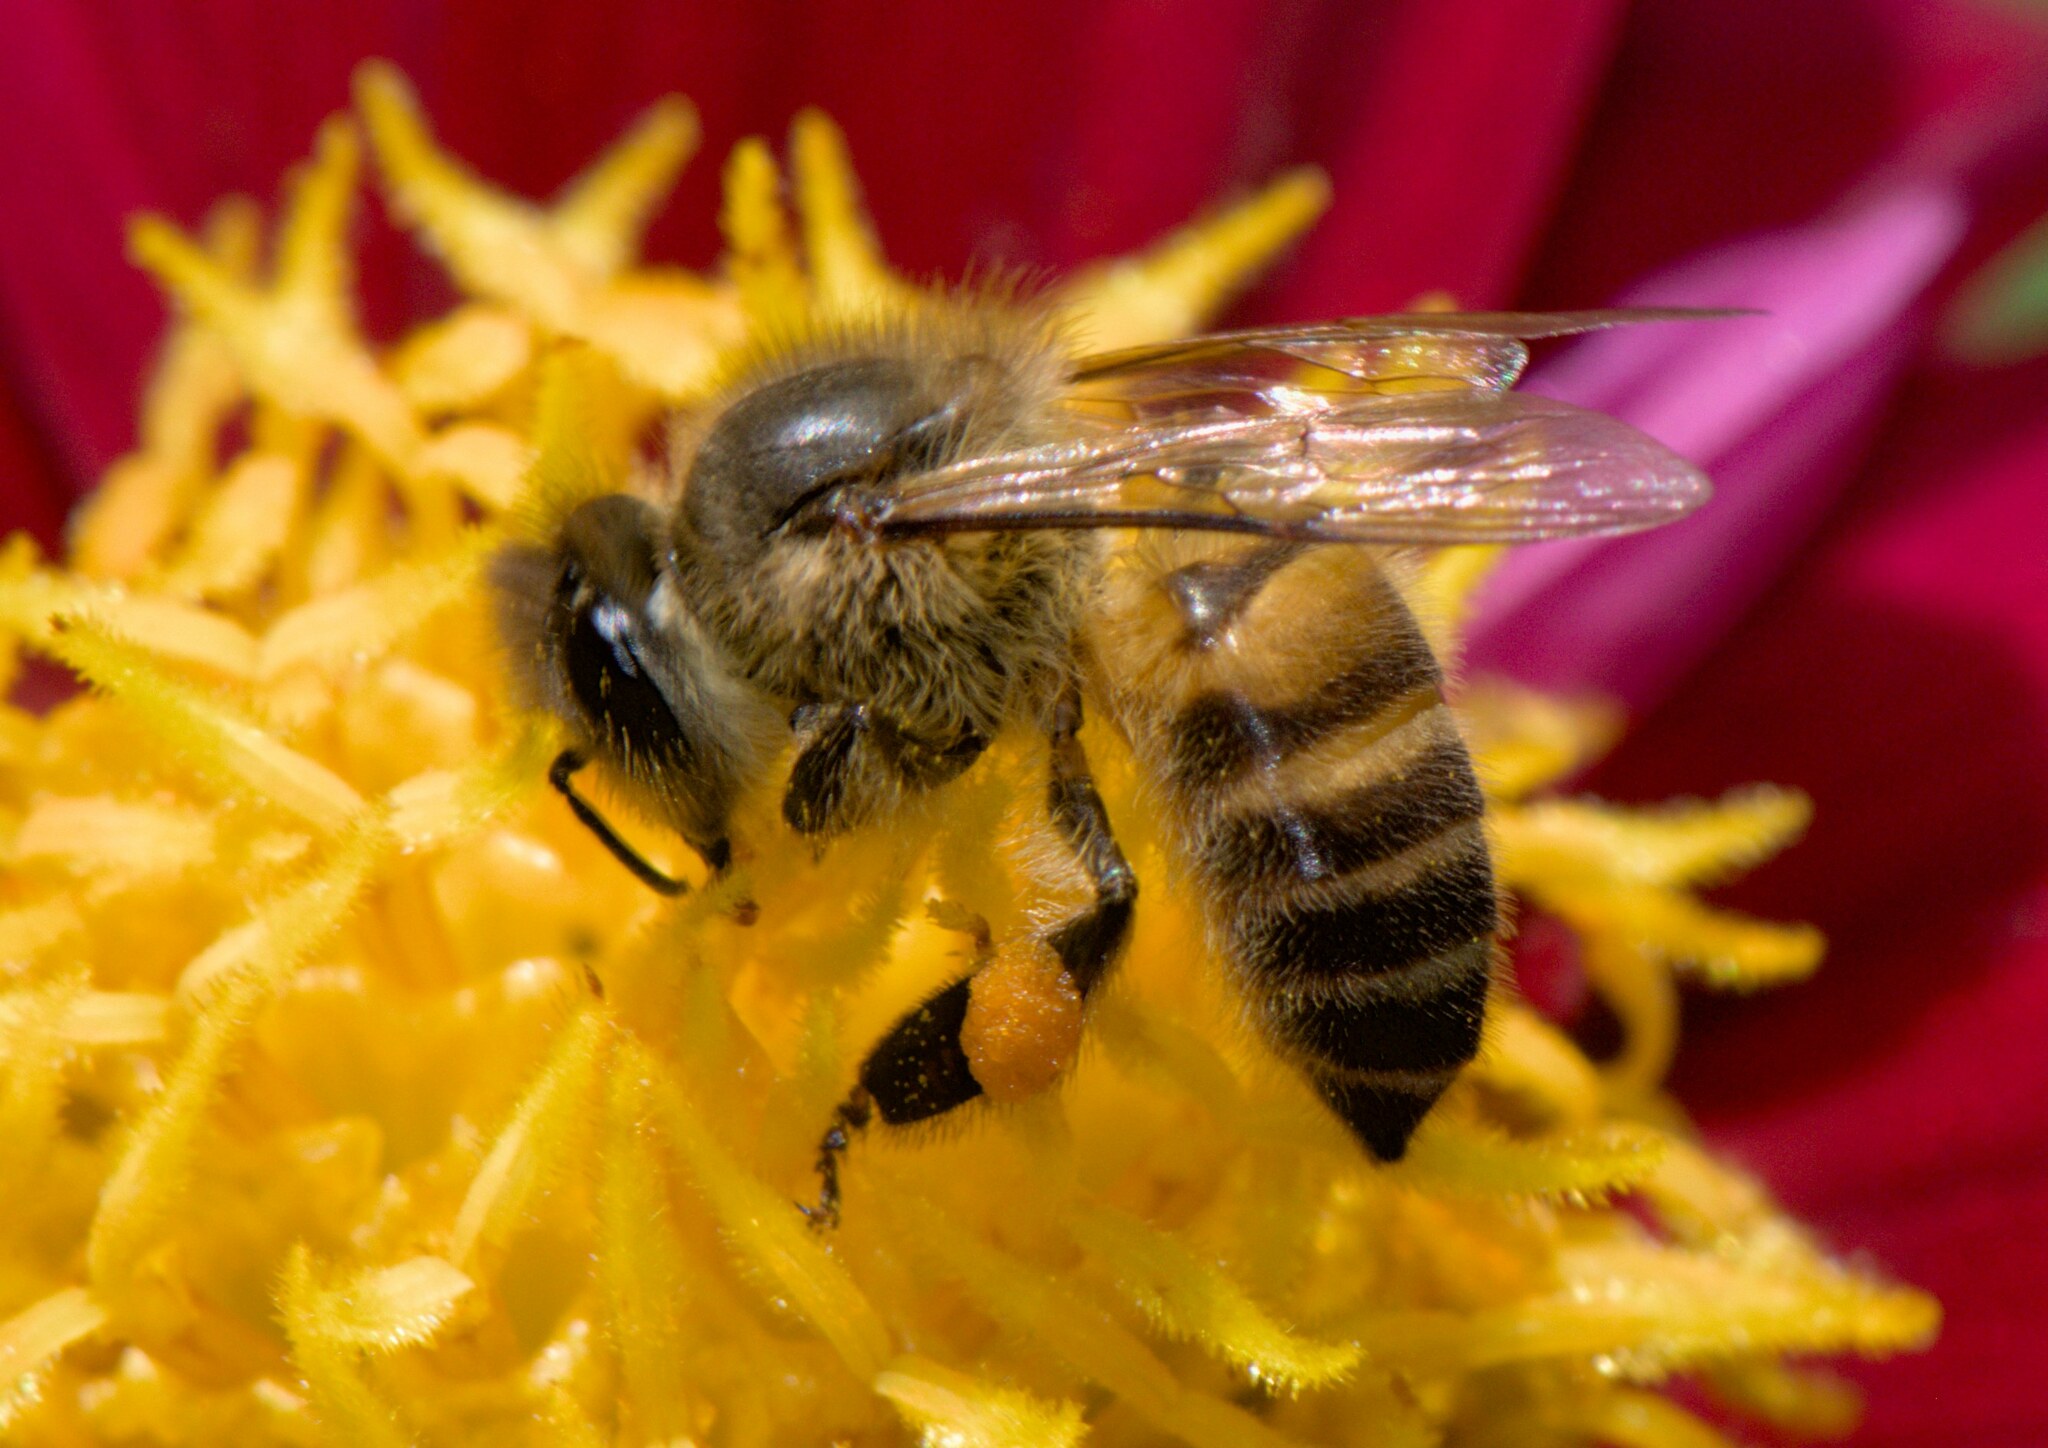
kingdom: Animalia
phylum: Arthropoda
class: Insecta
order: Hymenoptera
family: Apidae
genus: Apis
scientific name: Apis cerana
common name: Honey bee
